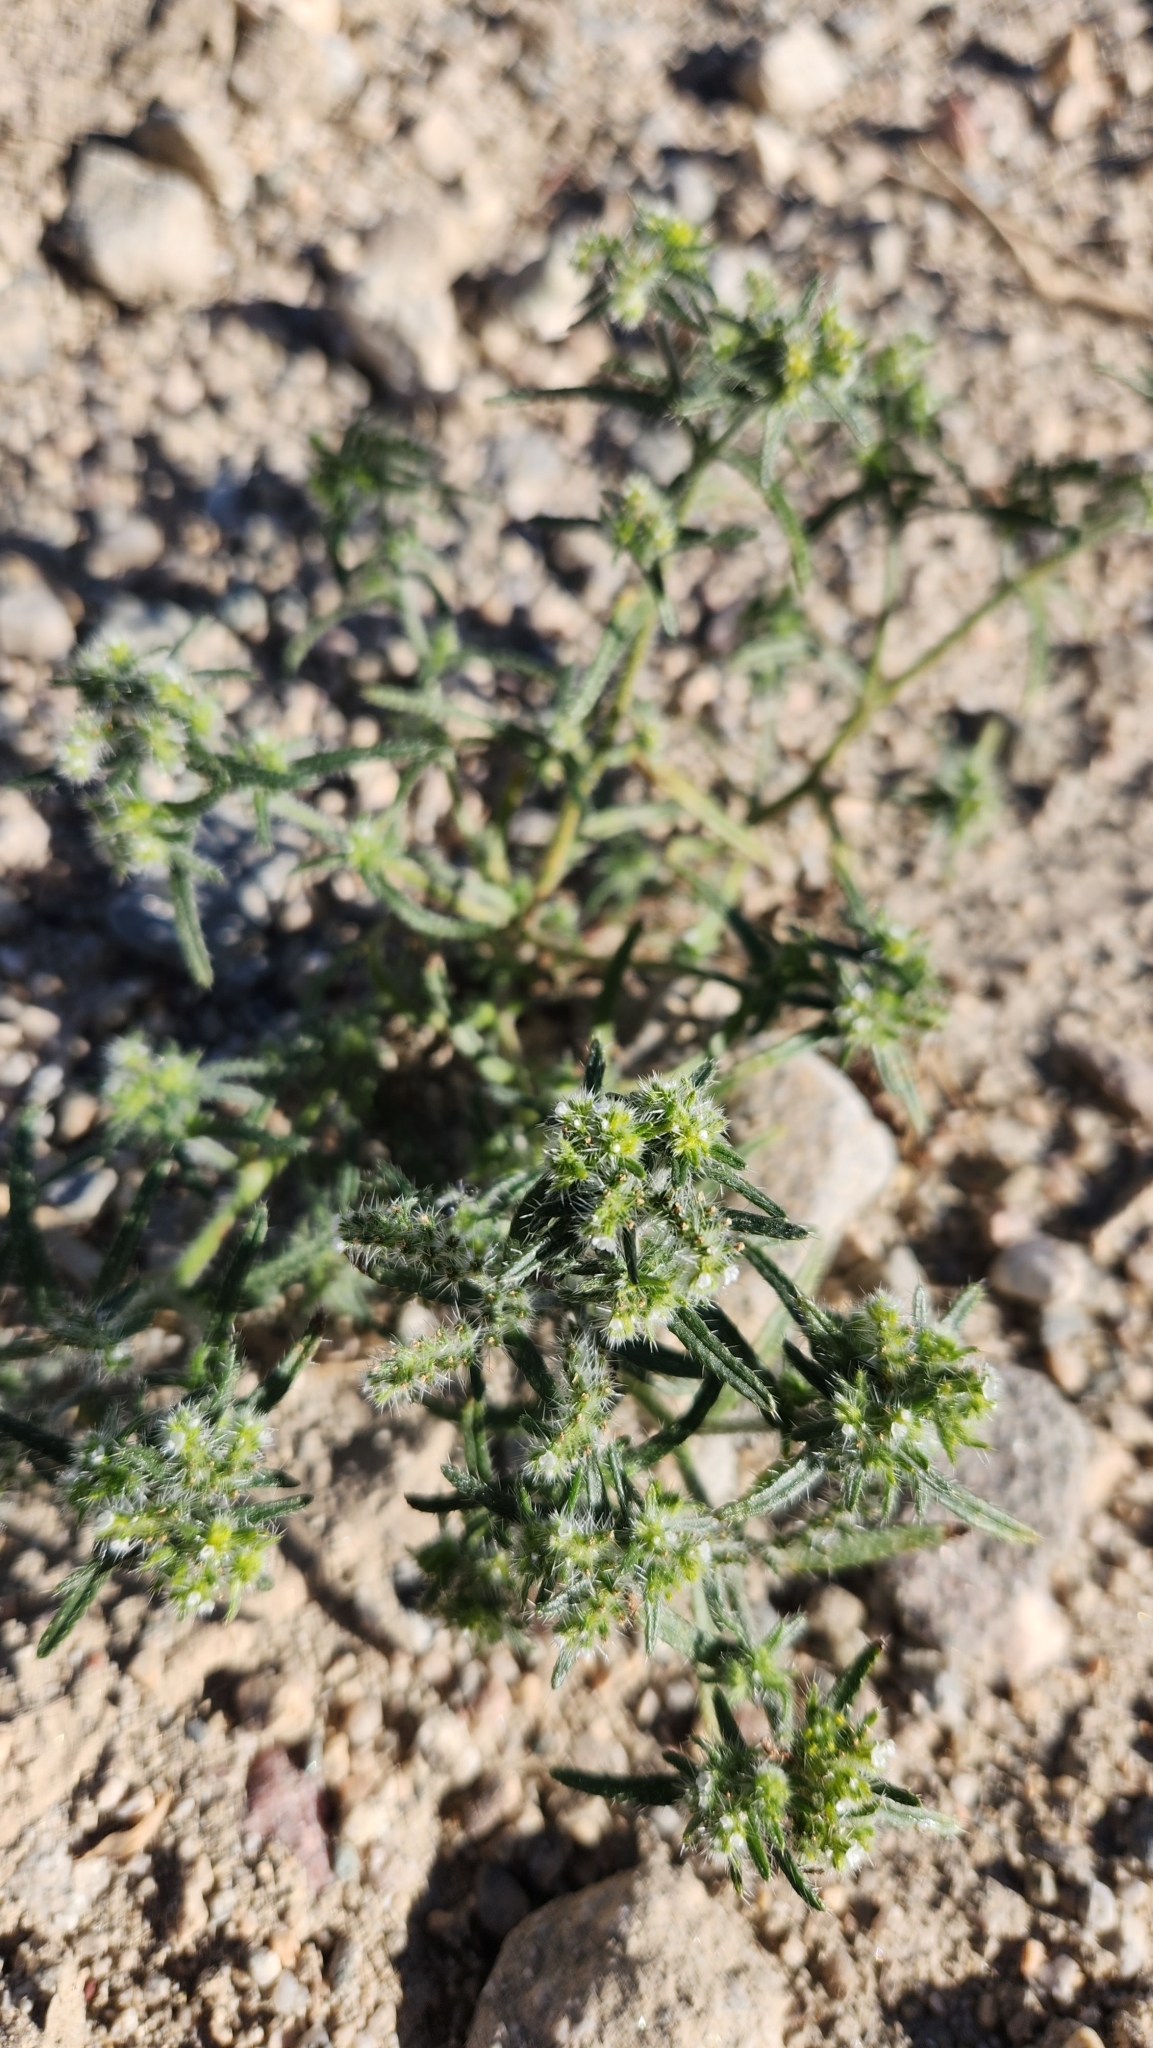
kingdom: Plantae
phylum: Tracheophyta
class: Magnoliopsida
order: Boraginales
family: Boraginaceae
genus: Cryptantha
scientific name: Cryptantha maritima
